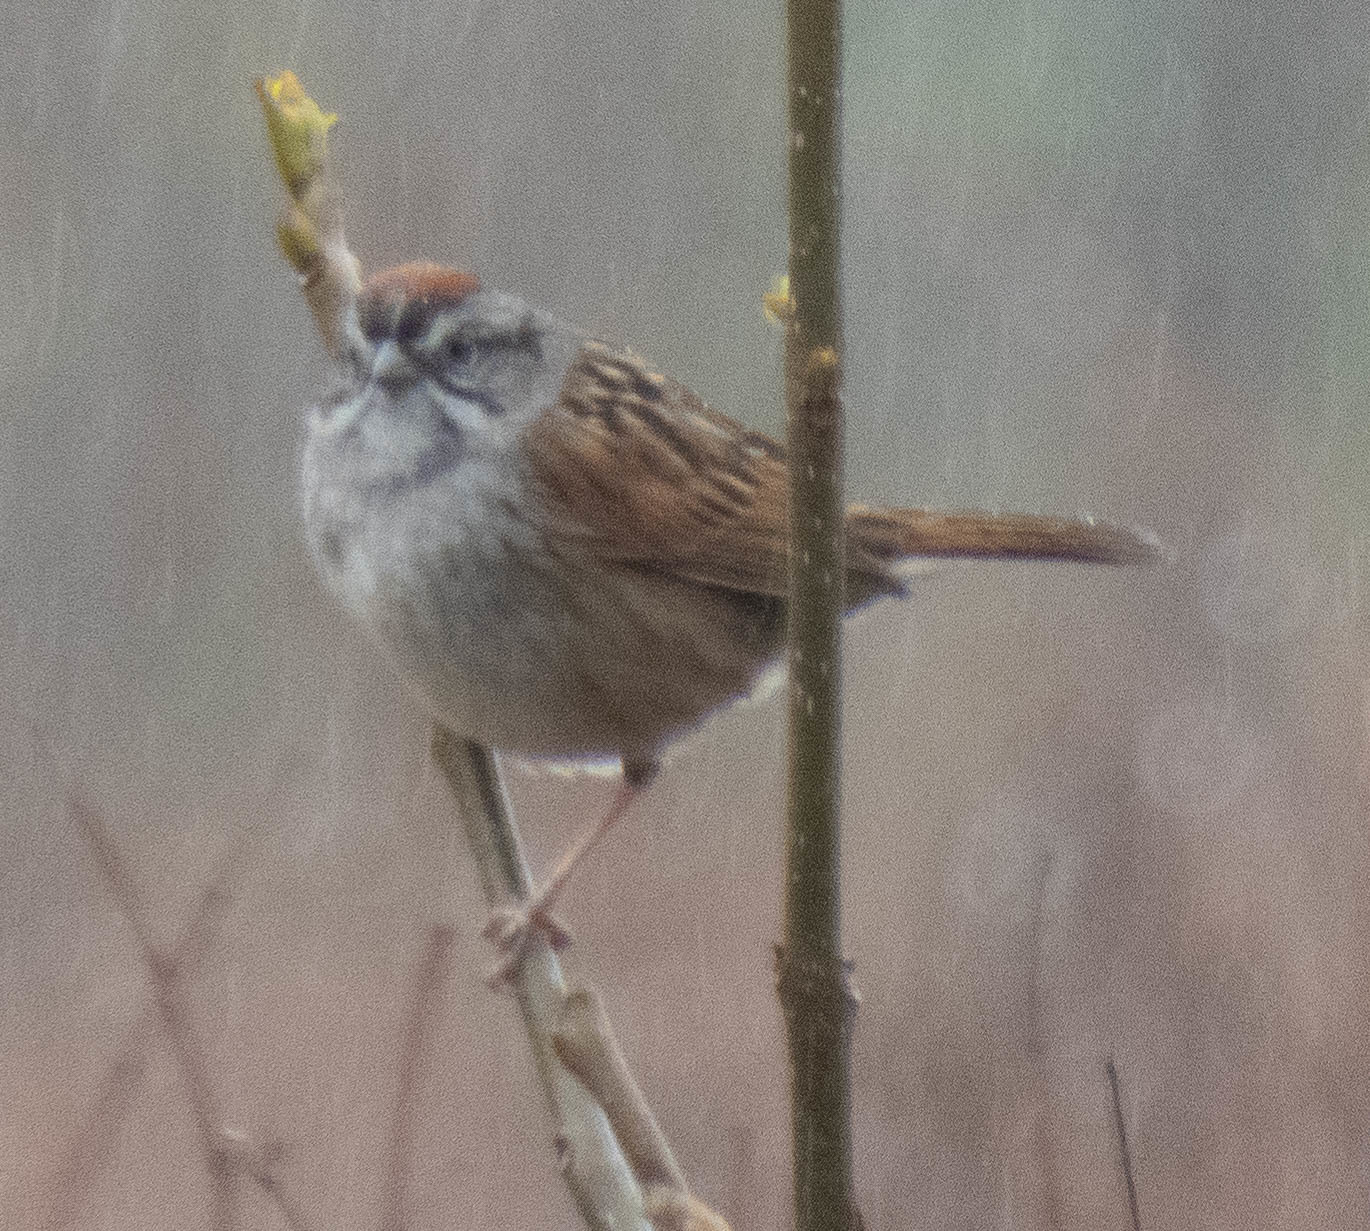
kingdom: Animalia
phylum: Chordata
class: Aves
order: Passeriformes
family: Passerellidae
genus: Melospiza
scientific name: Melospiza georgiana
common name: Swamp sparrow
